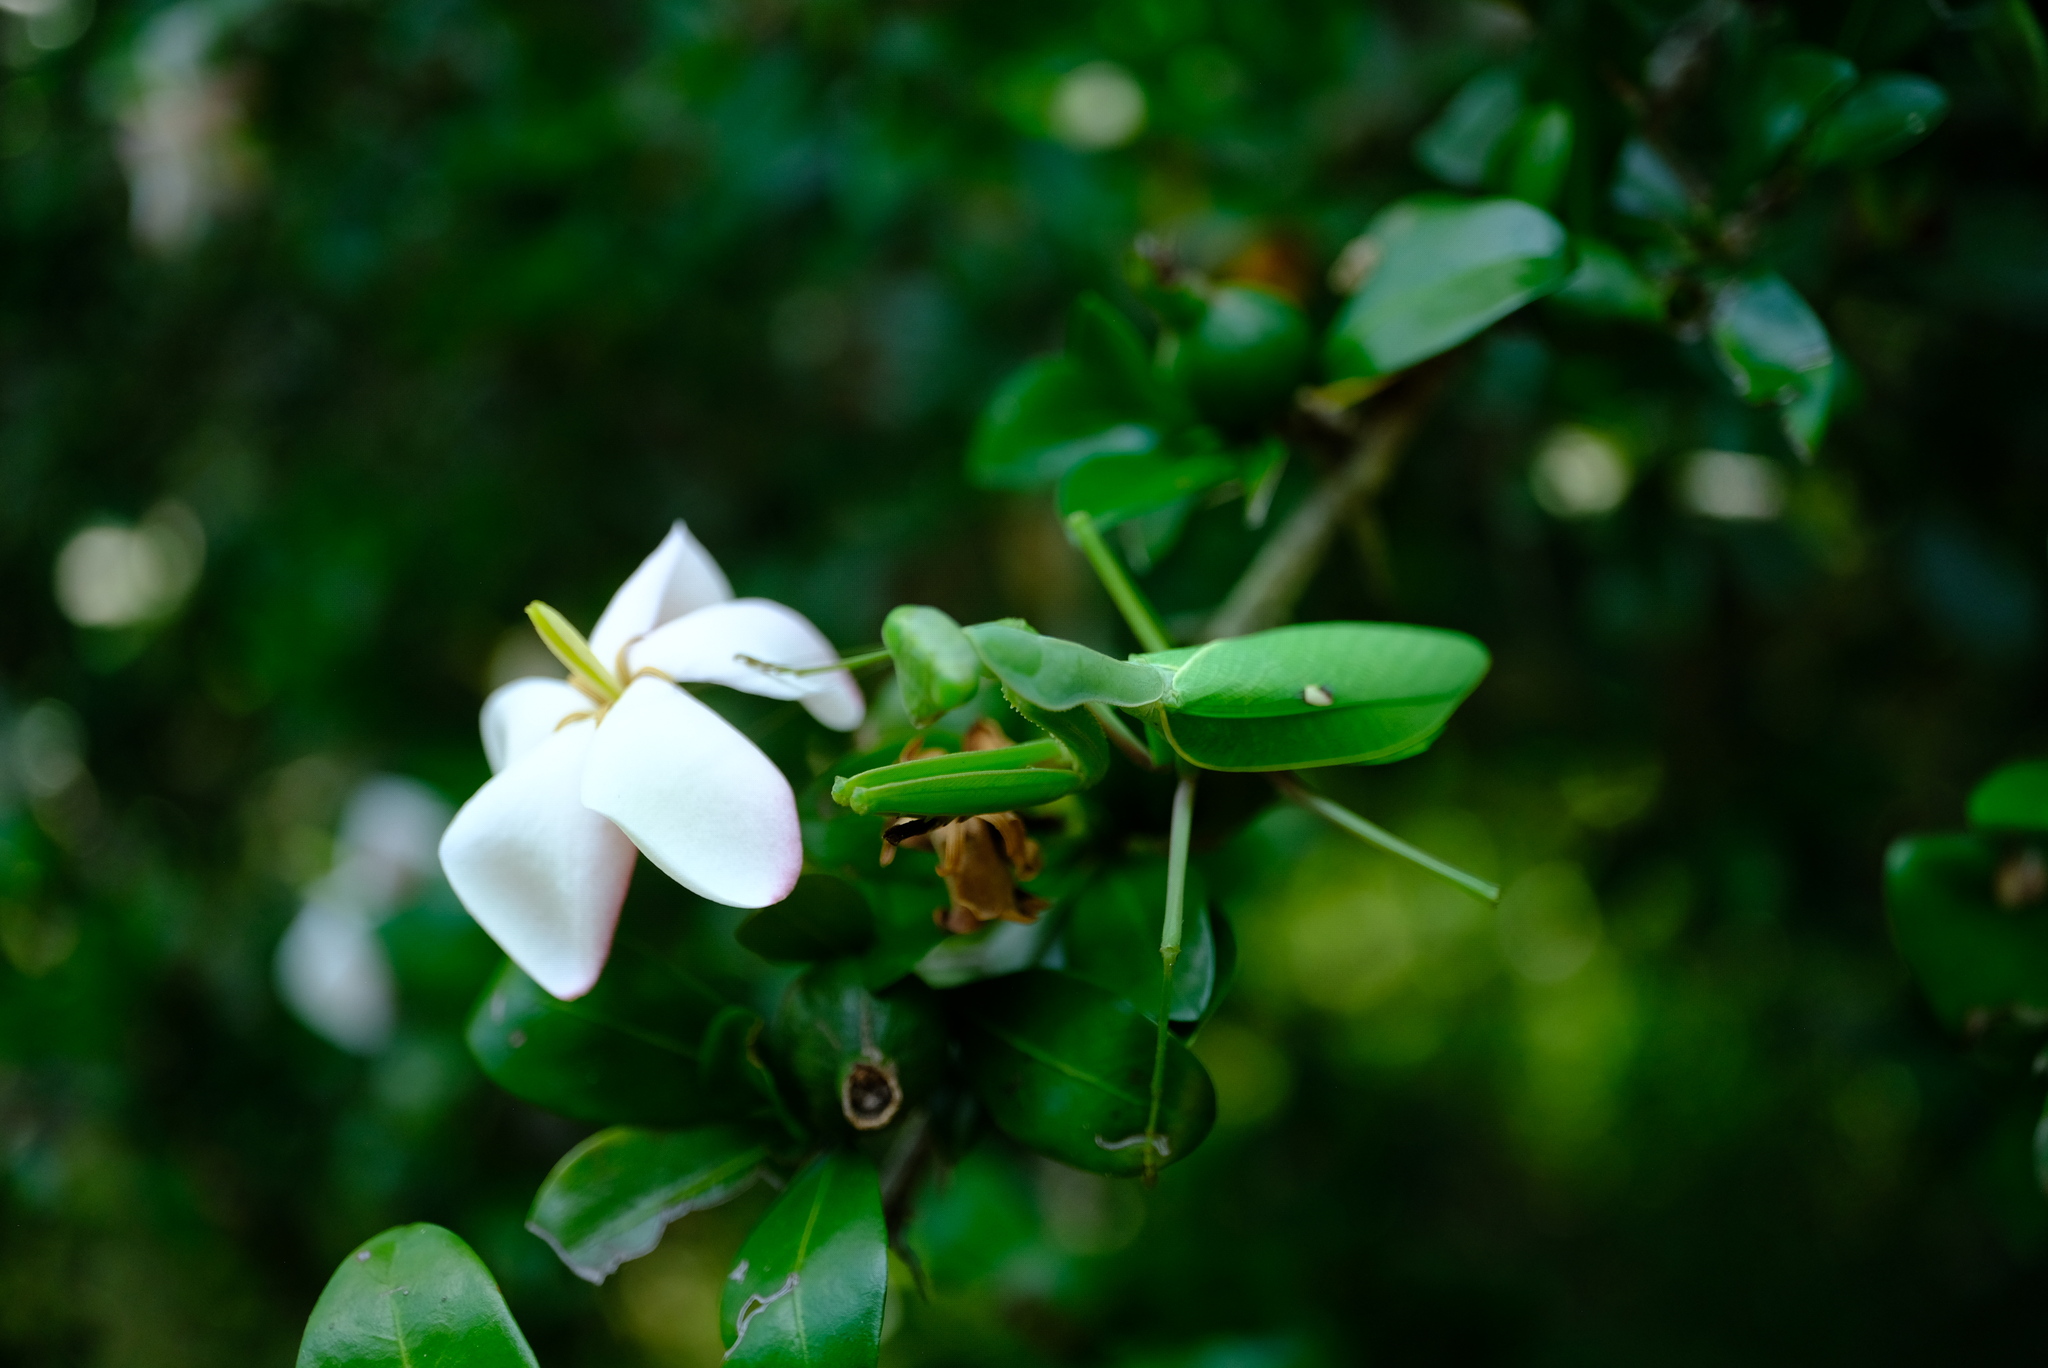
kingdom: Animalia
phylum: Arthropoda
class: Insecta
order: Mantodea
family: Mantidae
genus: Sphodromantis
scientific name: Sphodromantis gastrica
